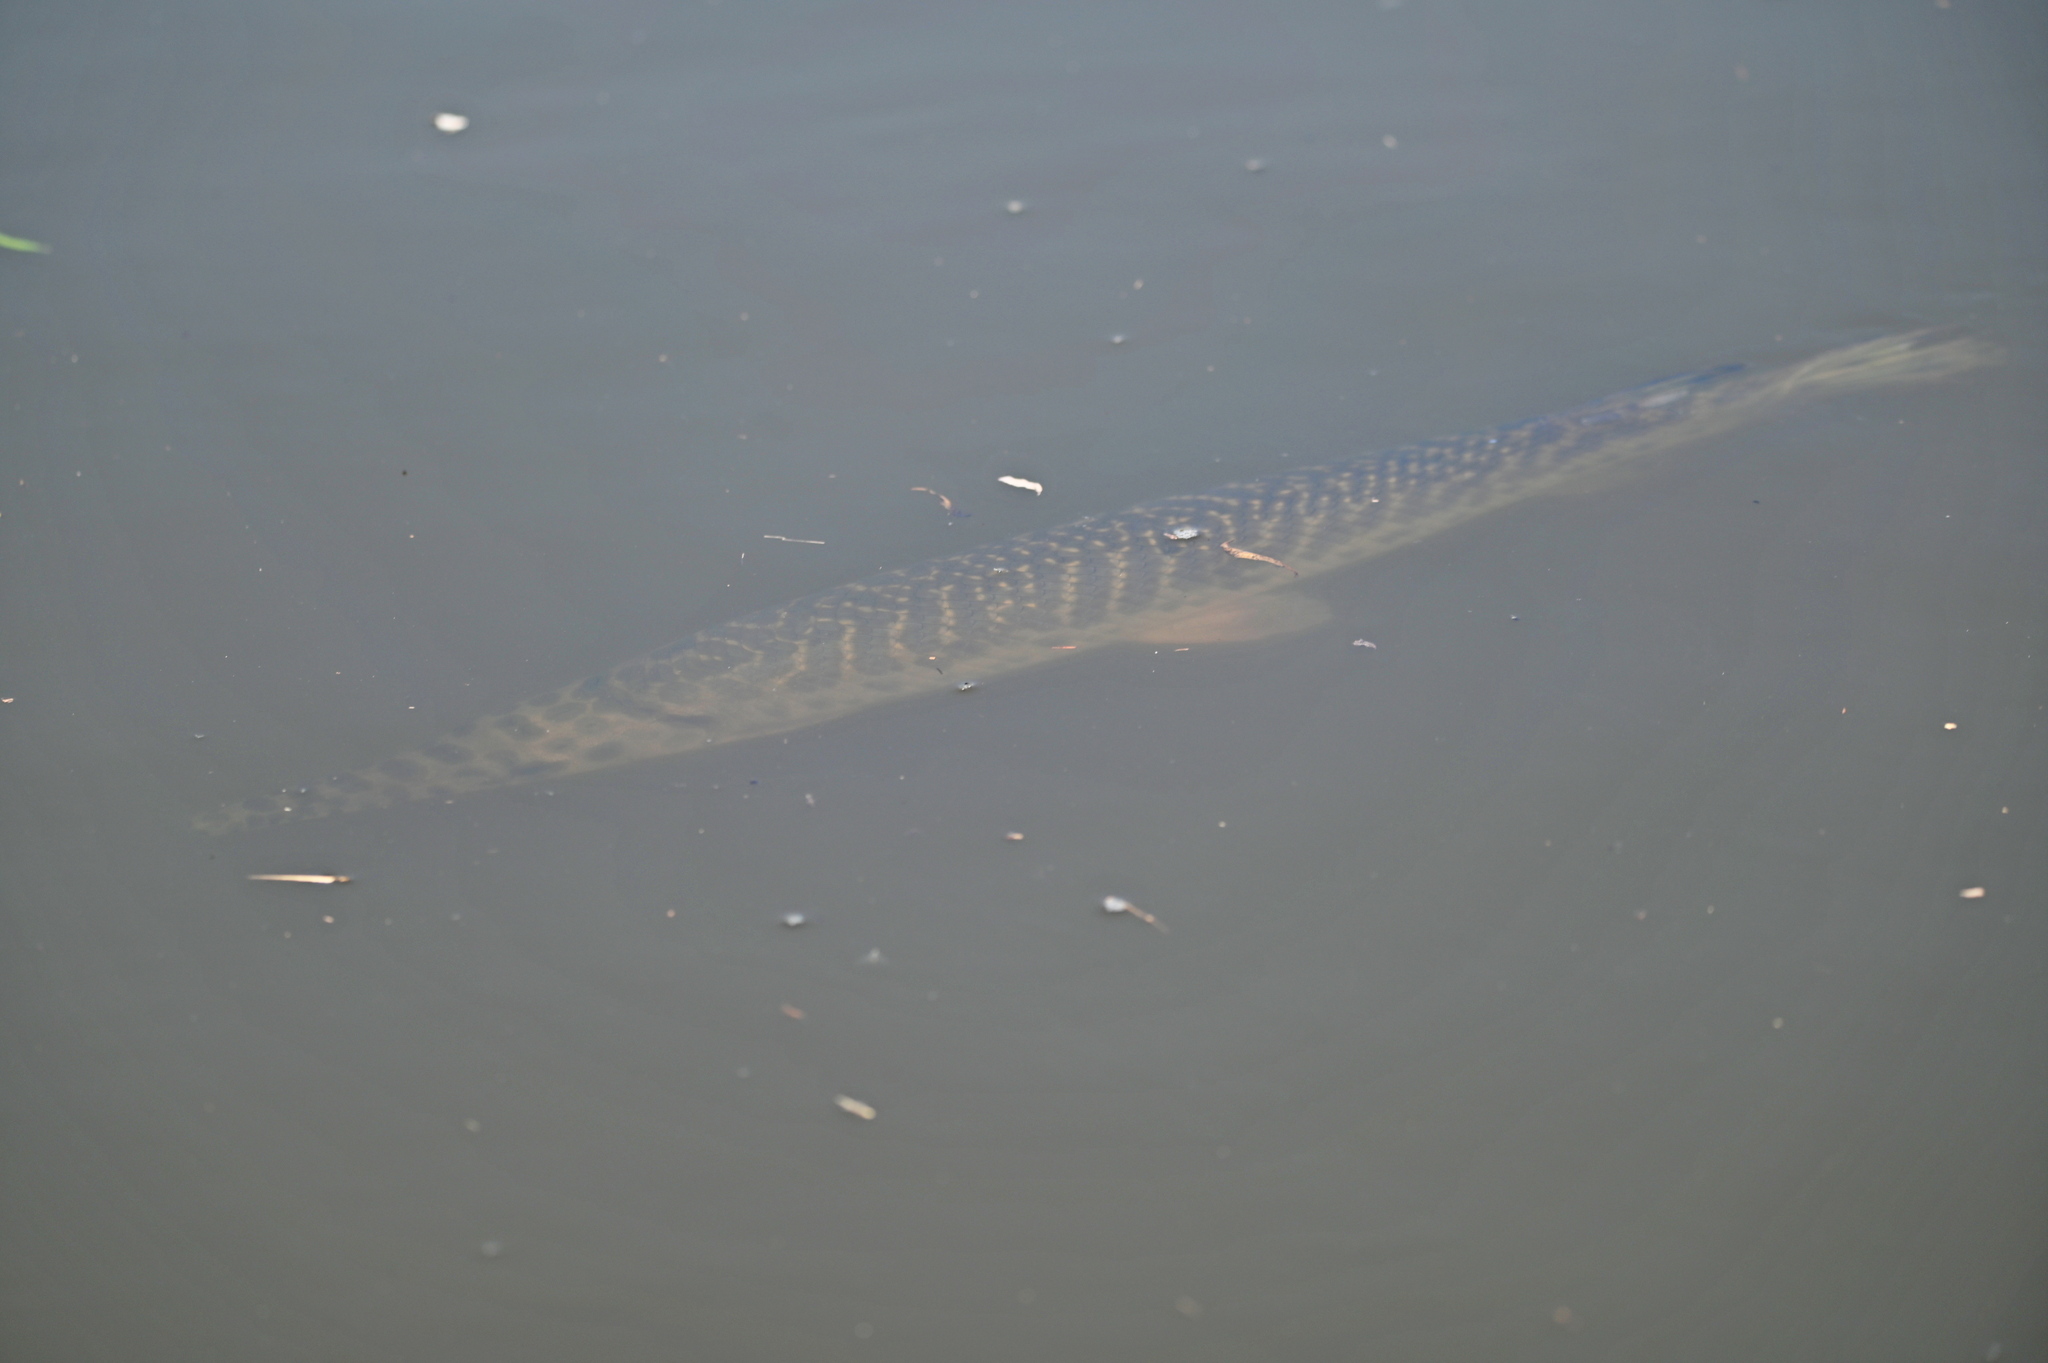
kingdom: Animalia
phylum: Chordata
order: Lepisosteiformes
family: Lepisosteidae
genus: Lepisosteus
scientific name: Lepisosteus oculatus
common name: Spotted gar
